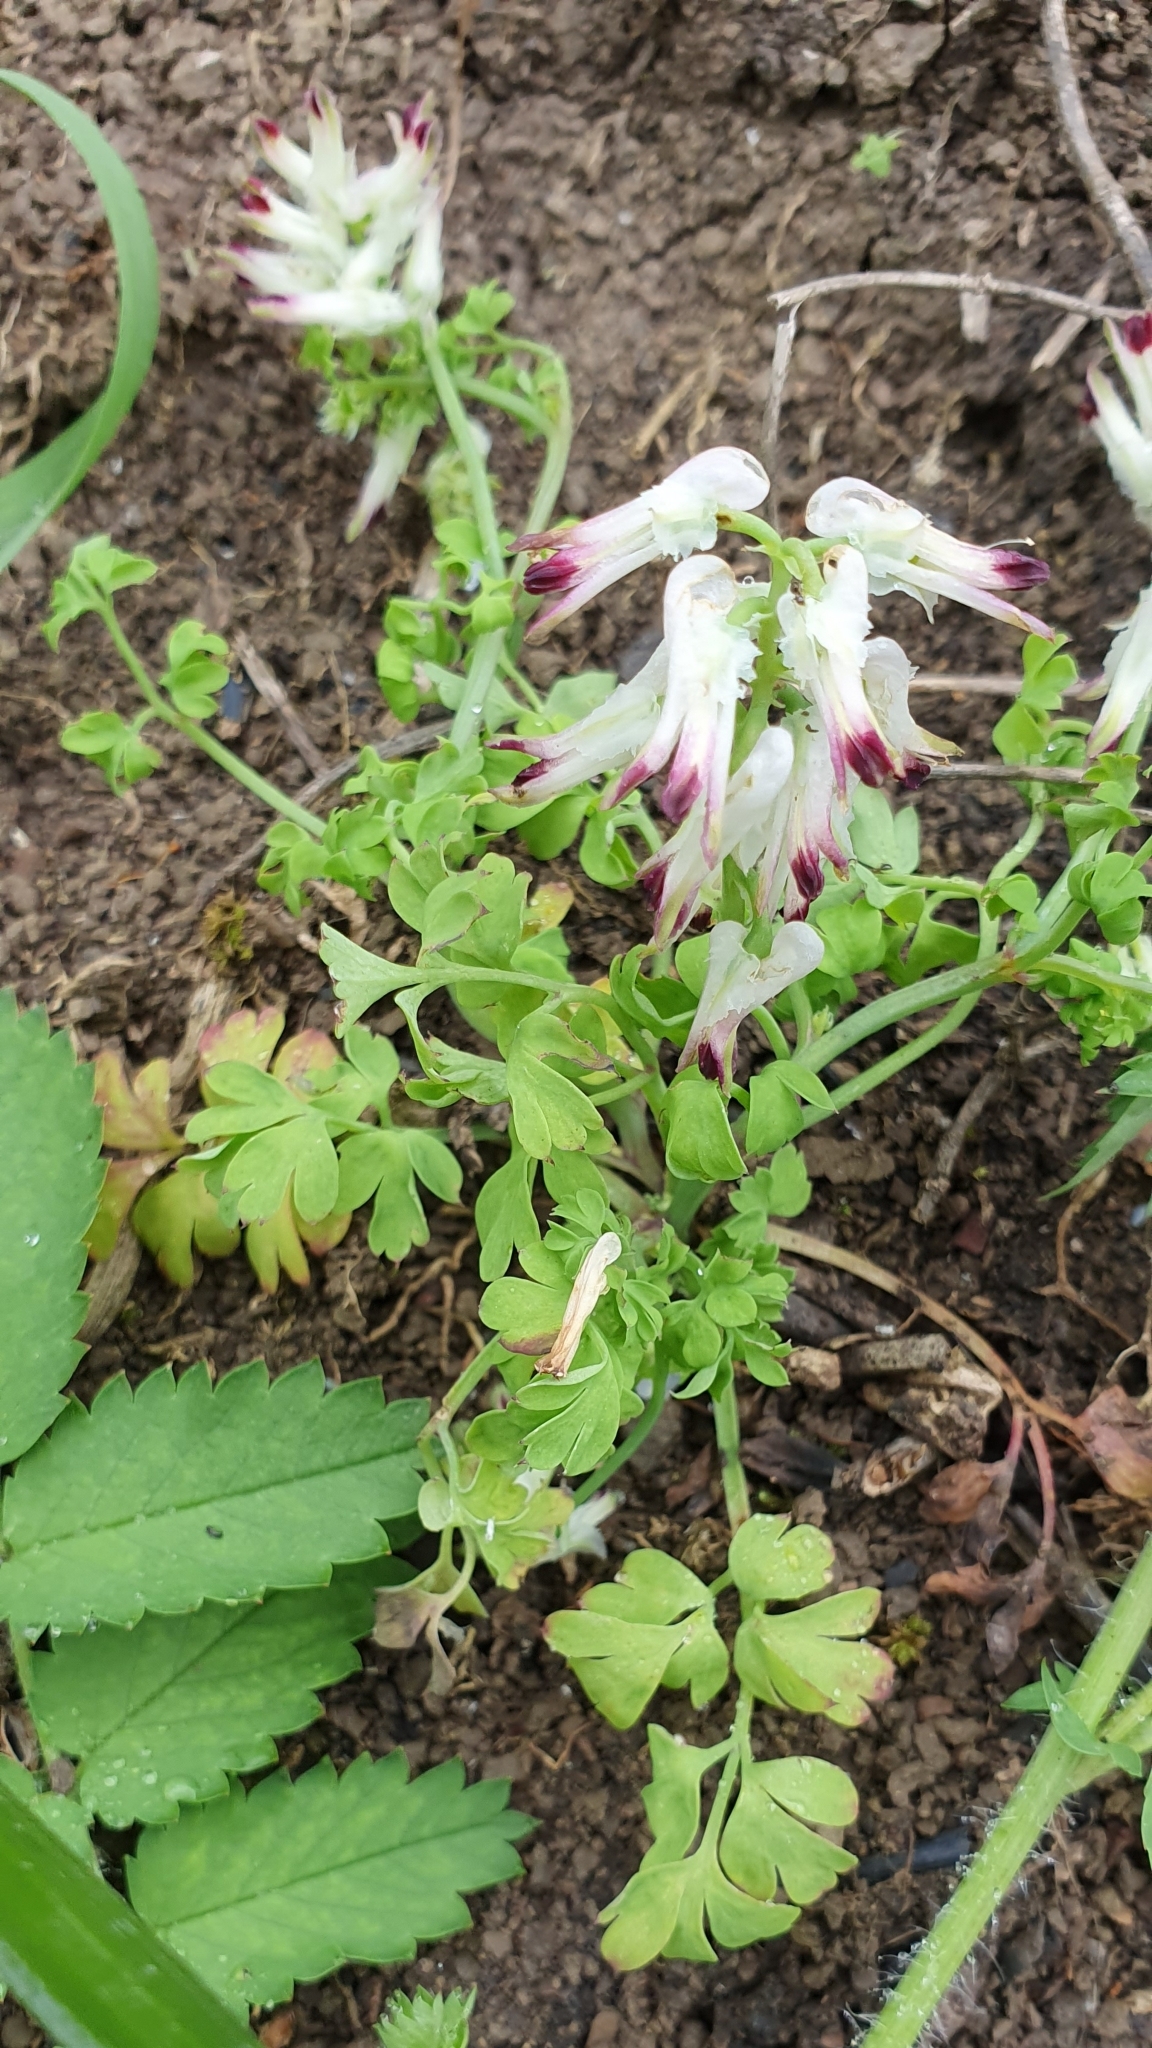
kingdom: Plantae
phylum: Tracheophyta
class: Magnoliopsida
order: Ranunculales
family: Papaveraceae
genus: Fumaria
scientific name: Fumaria capreolata
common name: White ramping-fumitory
